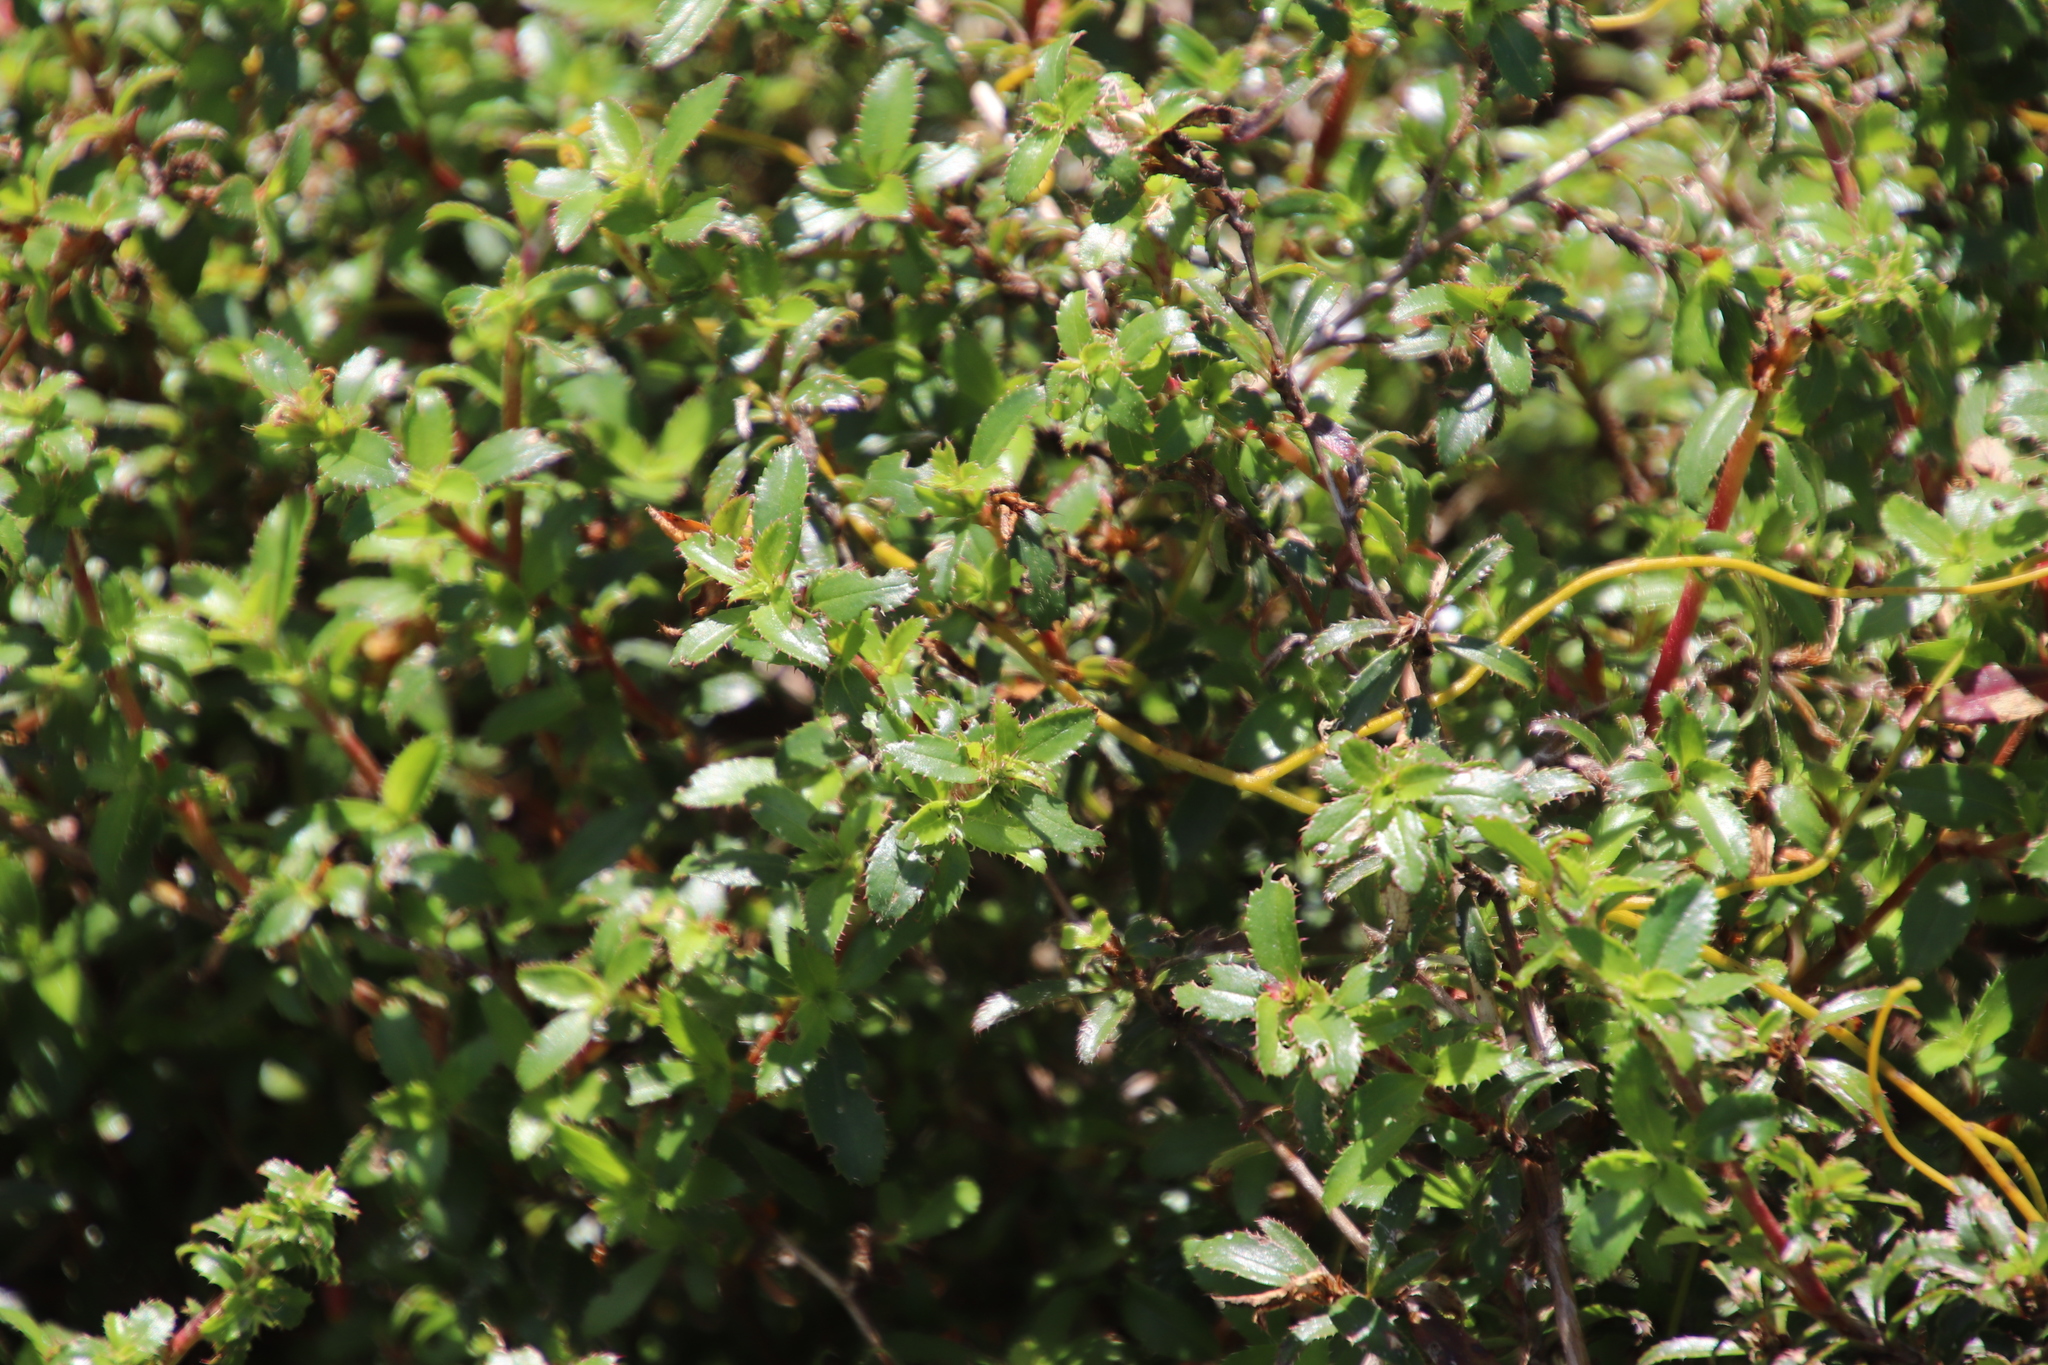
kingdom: Plantae
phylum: Tracheophyta
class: Magnoliopsida
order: Rosales
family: Rosaceae
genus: Cliffortia
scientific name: Cliffortia ferruginea
